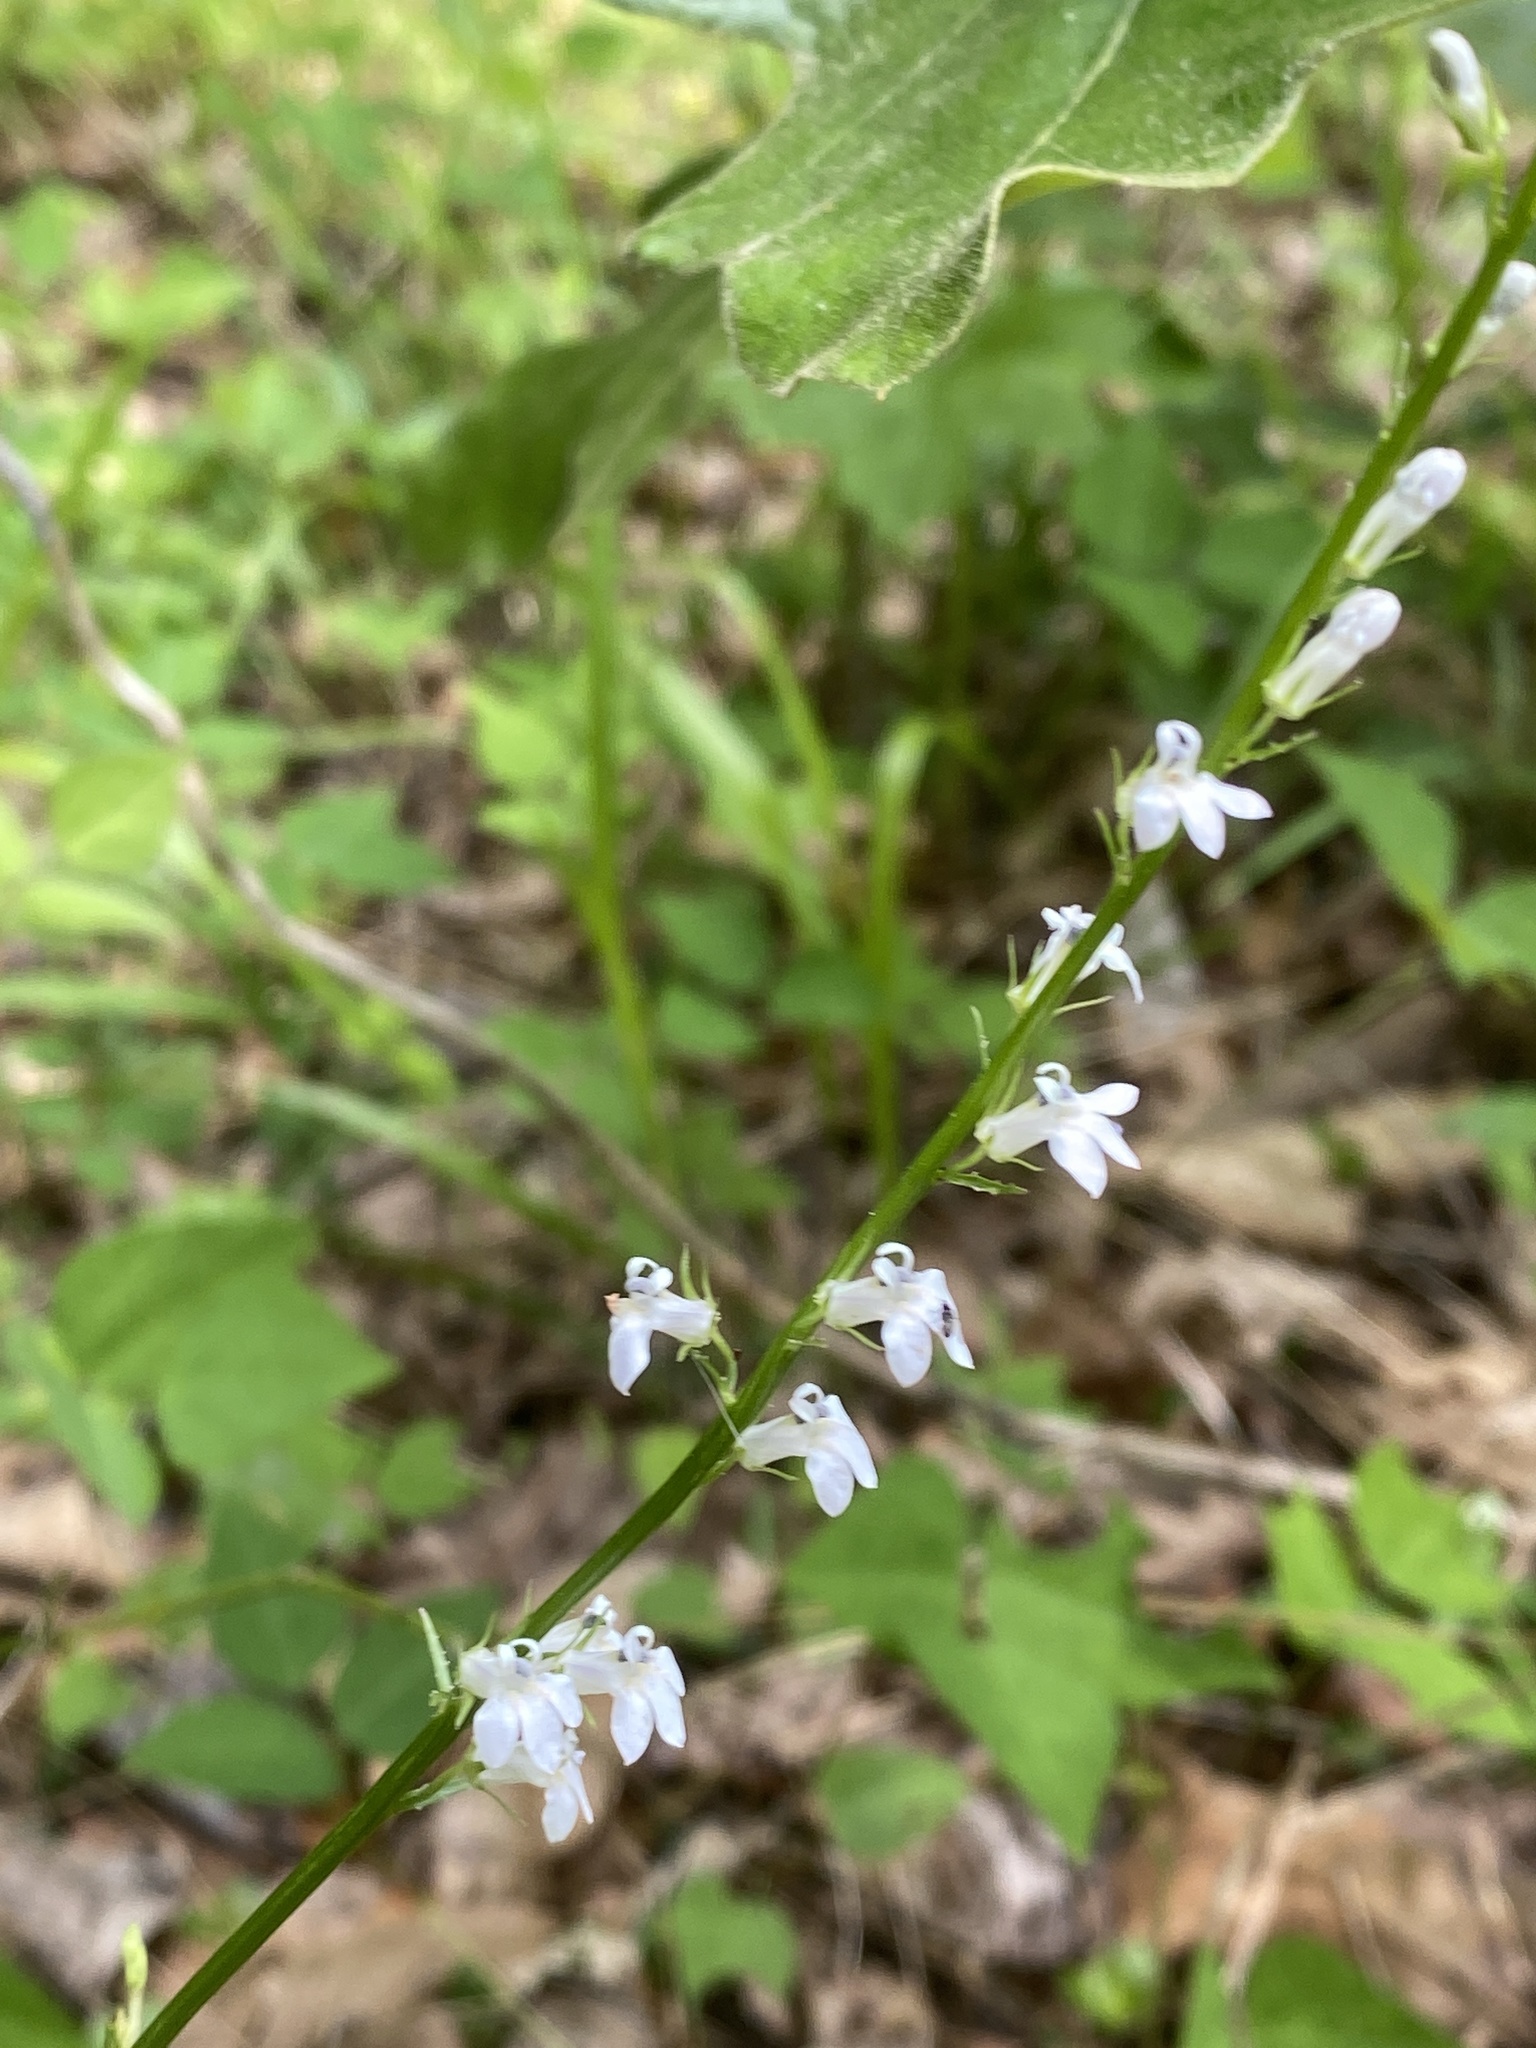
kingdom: Plantae
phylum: Tracheophyta
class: Magnoliopsida
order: Asterales
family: Campanulaceae
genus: Lobelia
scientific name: Lobelia spicata
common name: Pale-spike lobelia
